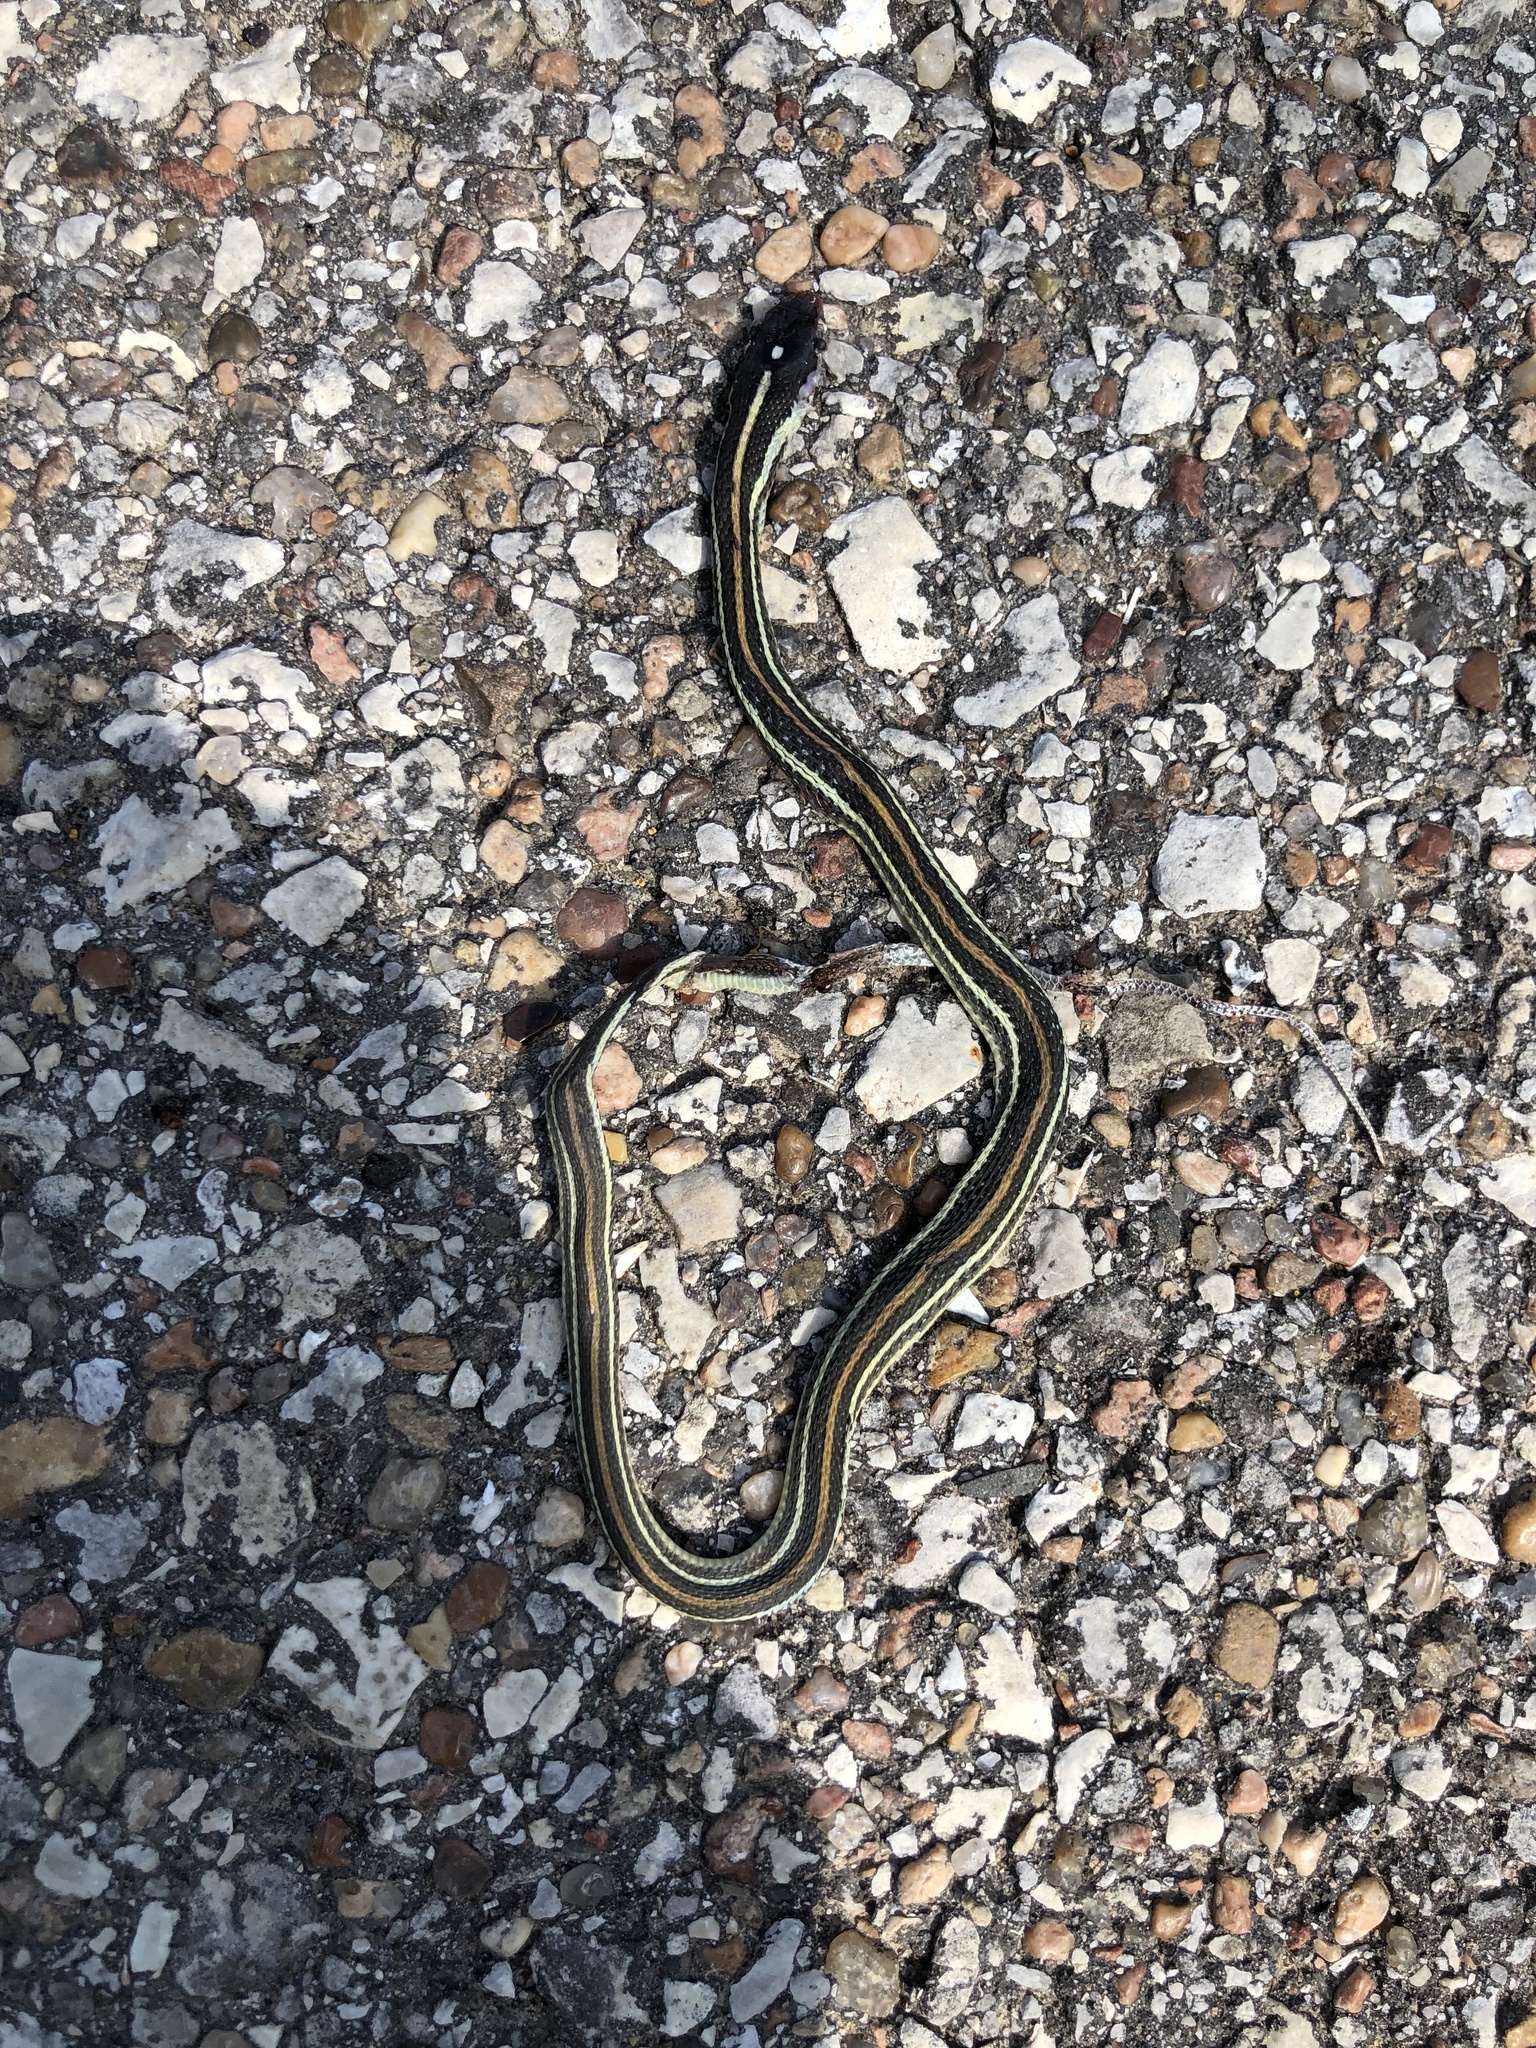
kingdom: Animalia
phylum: Chordata
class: Squamata
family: Colubridae
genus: Thamnophis
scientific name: Thamnophis proximus
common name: Western ribbon snake
